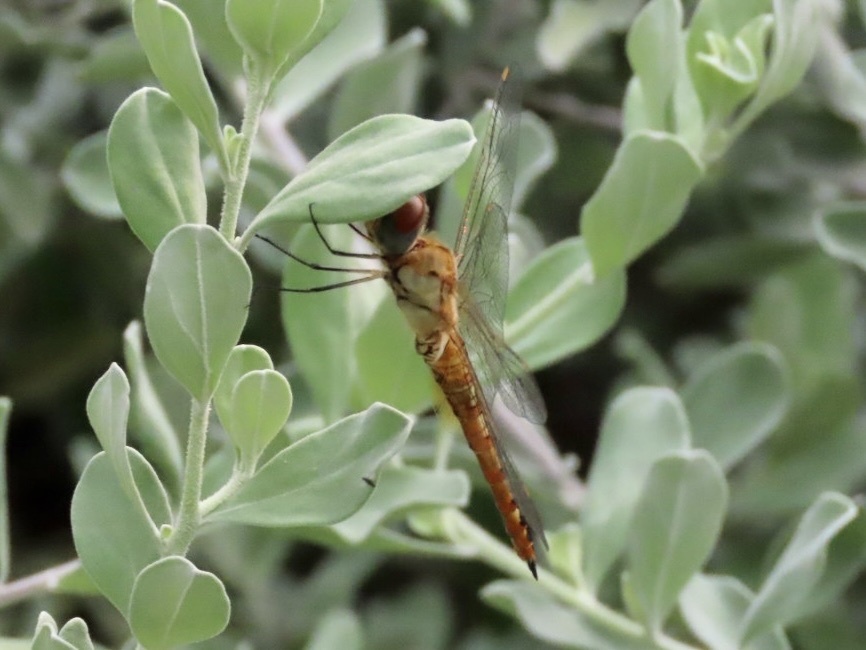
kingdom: Animalia
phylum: Arthropoda
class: Insecta
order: Odonata
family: Libellulidae
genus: Pantala
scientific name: Pantala flavescens
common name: Wandering glider
